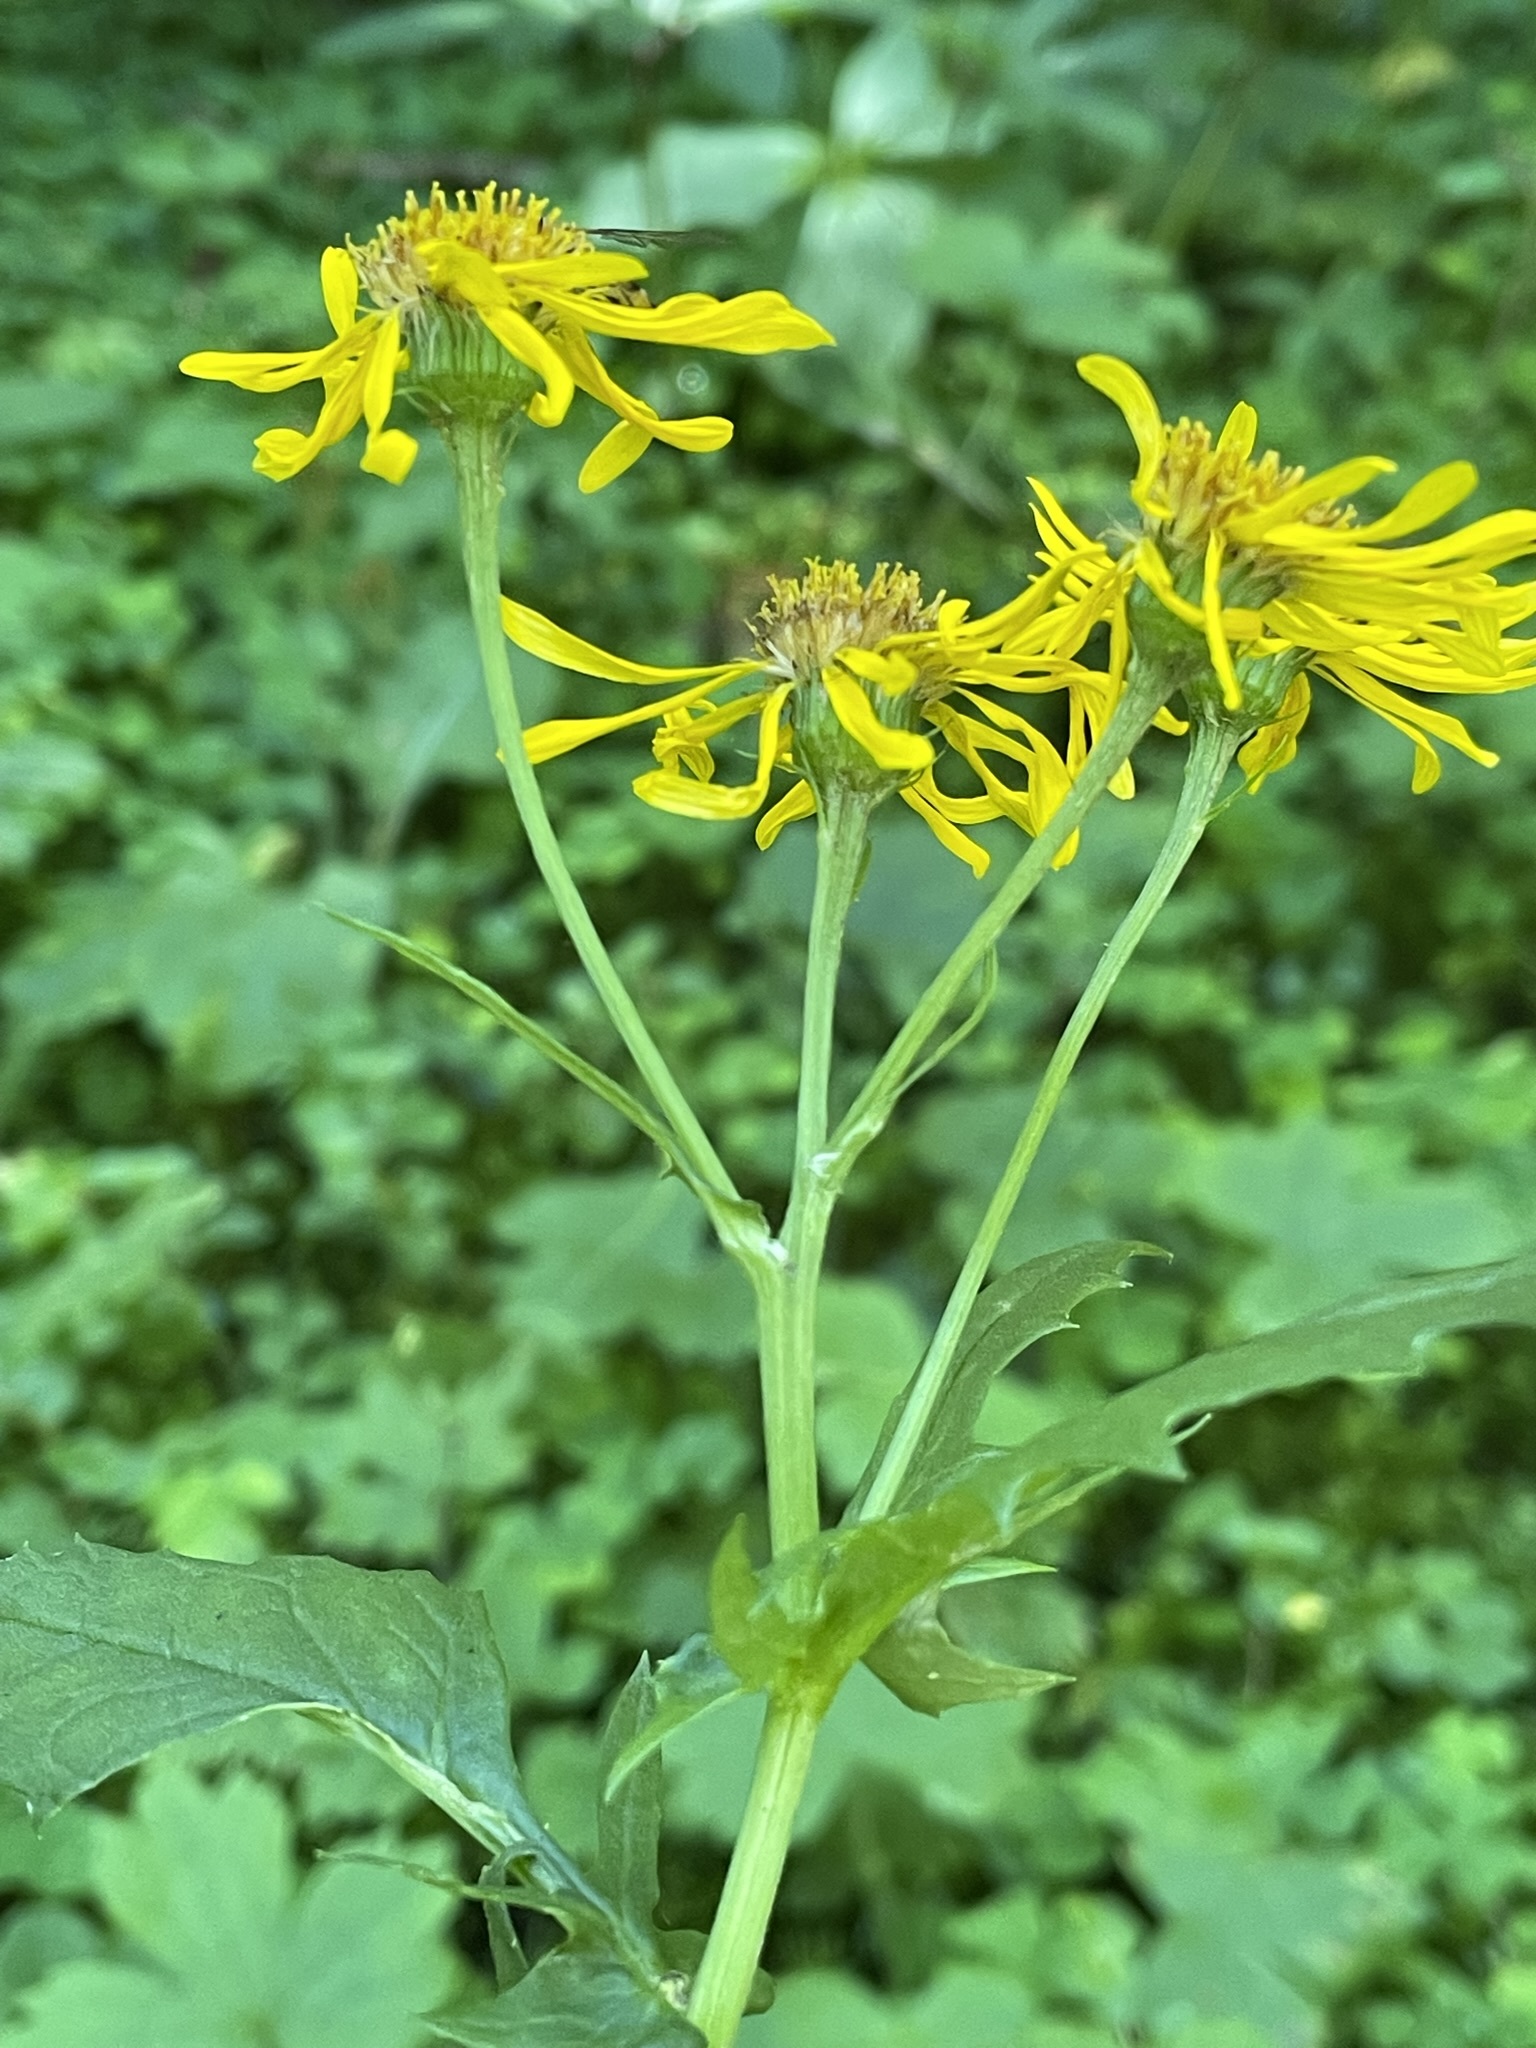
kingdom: Plantae
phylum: Tracheophyta
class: Magnoliopsida
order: Asterales
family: Asteraceae
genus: Jacobaea
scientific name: Jacobaea subalpina
